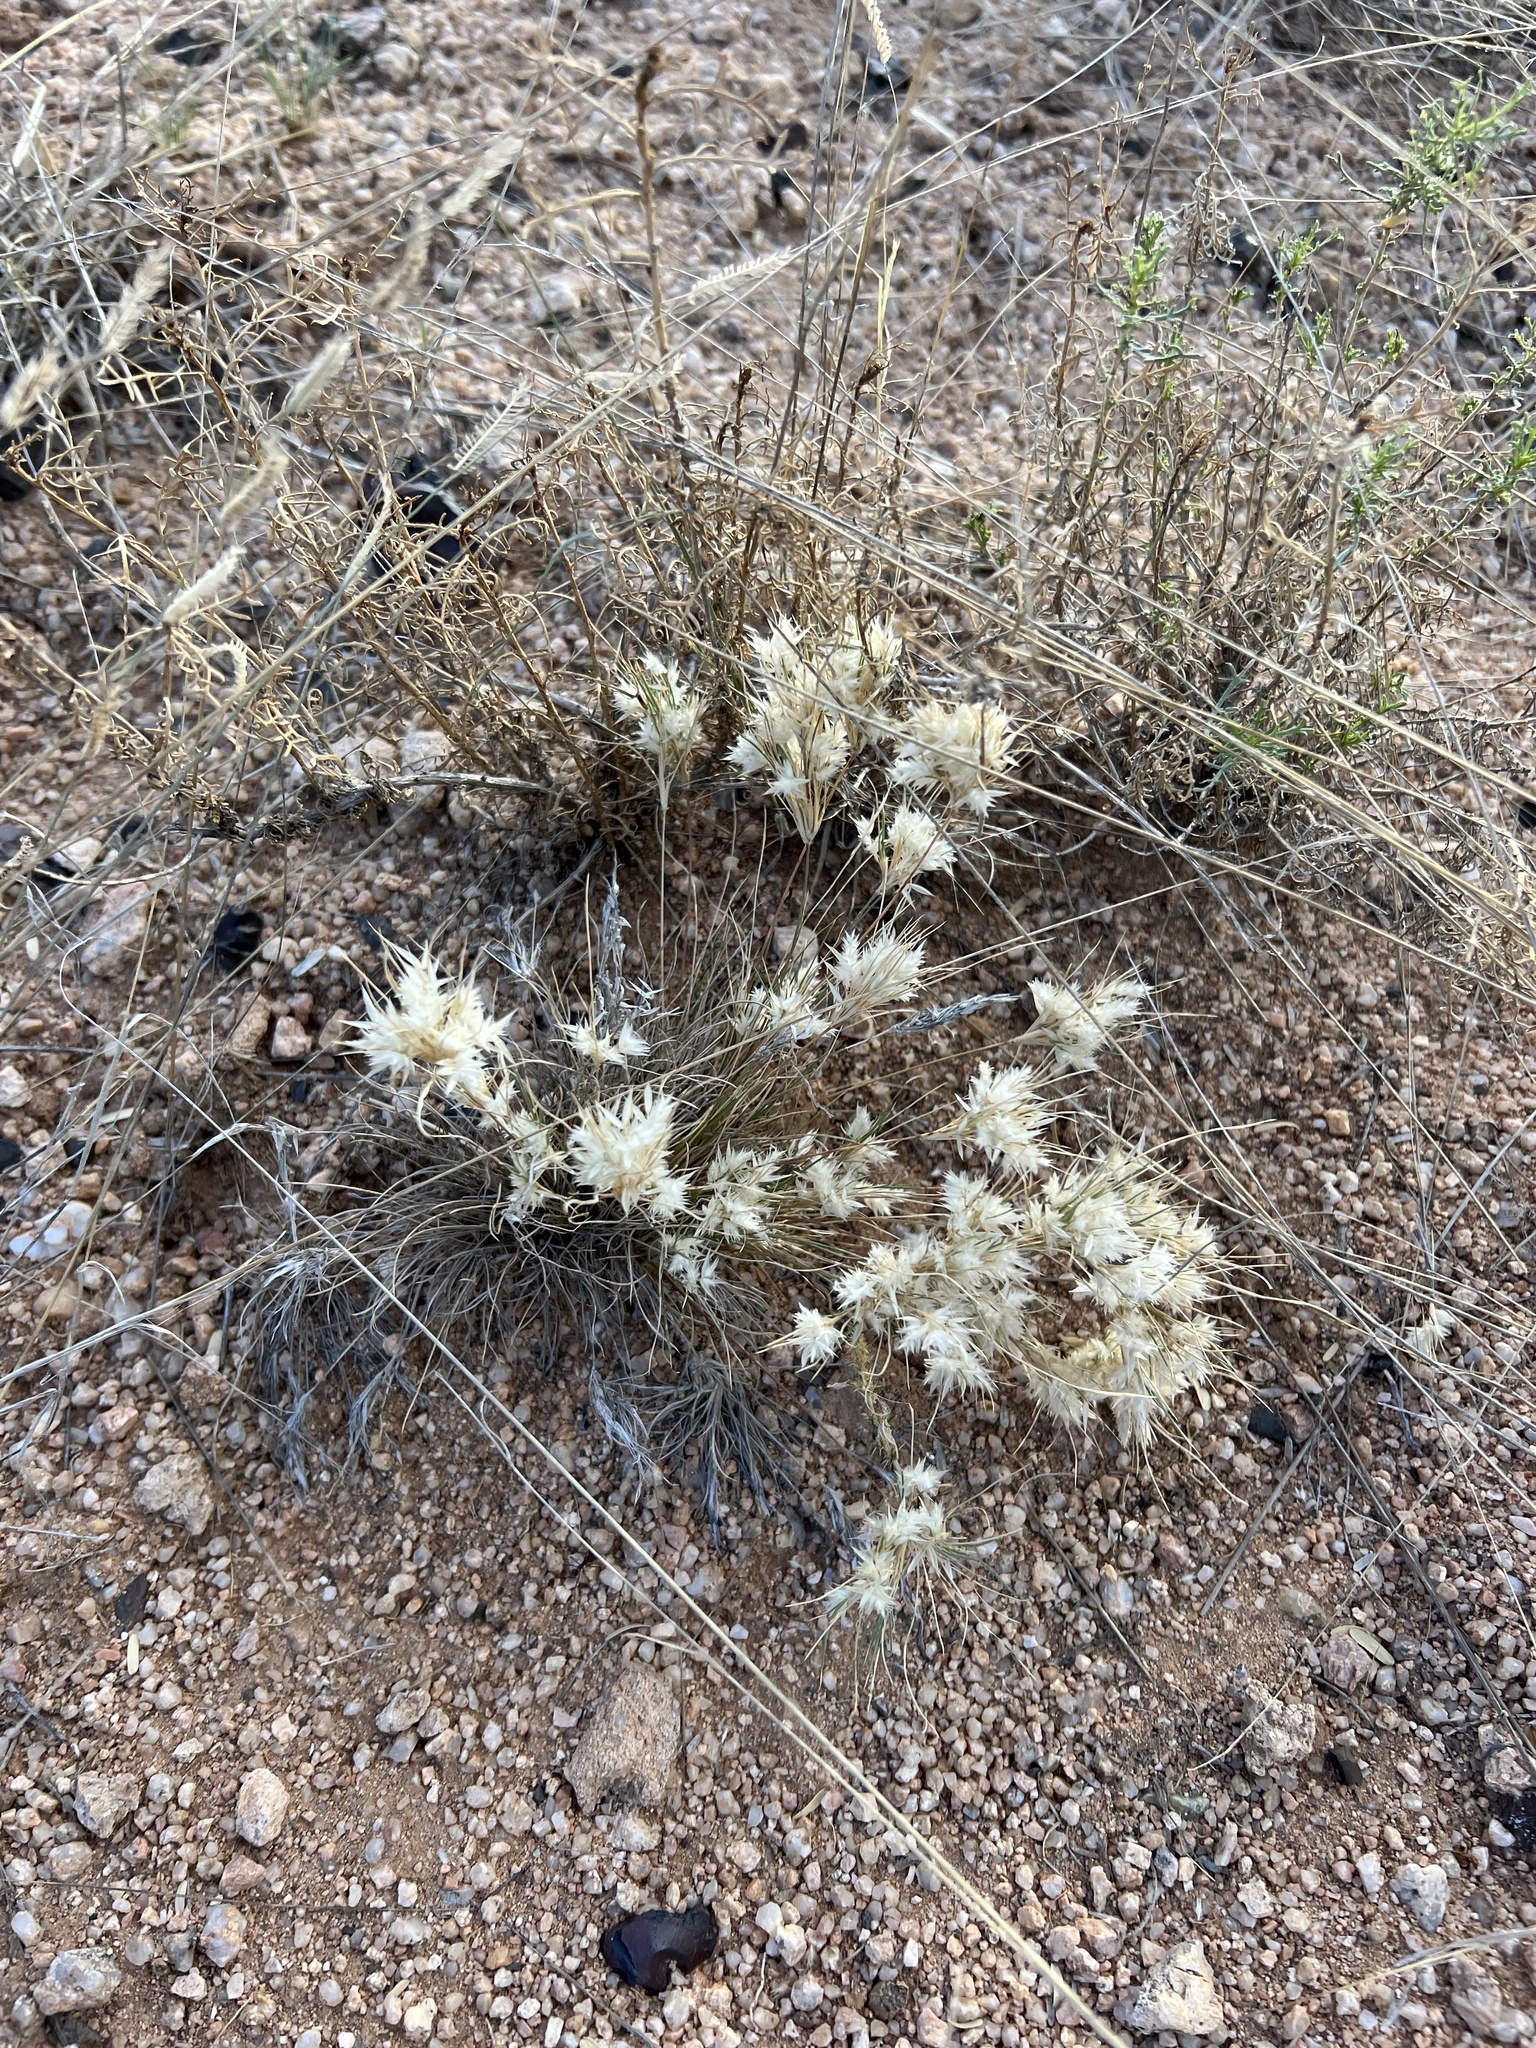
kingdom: Plantae
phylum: Tracheophyta
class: Liliopsida
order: Poales
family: Poaceae
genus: Dasyochloa
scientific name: Dasyochloa pulchella
